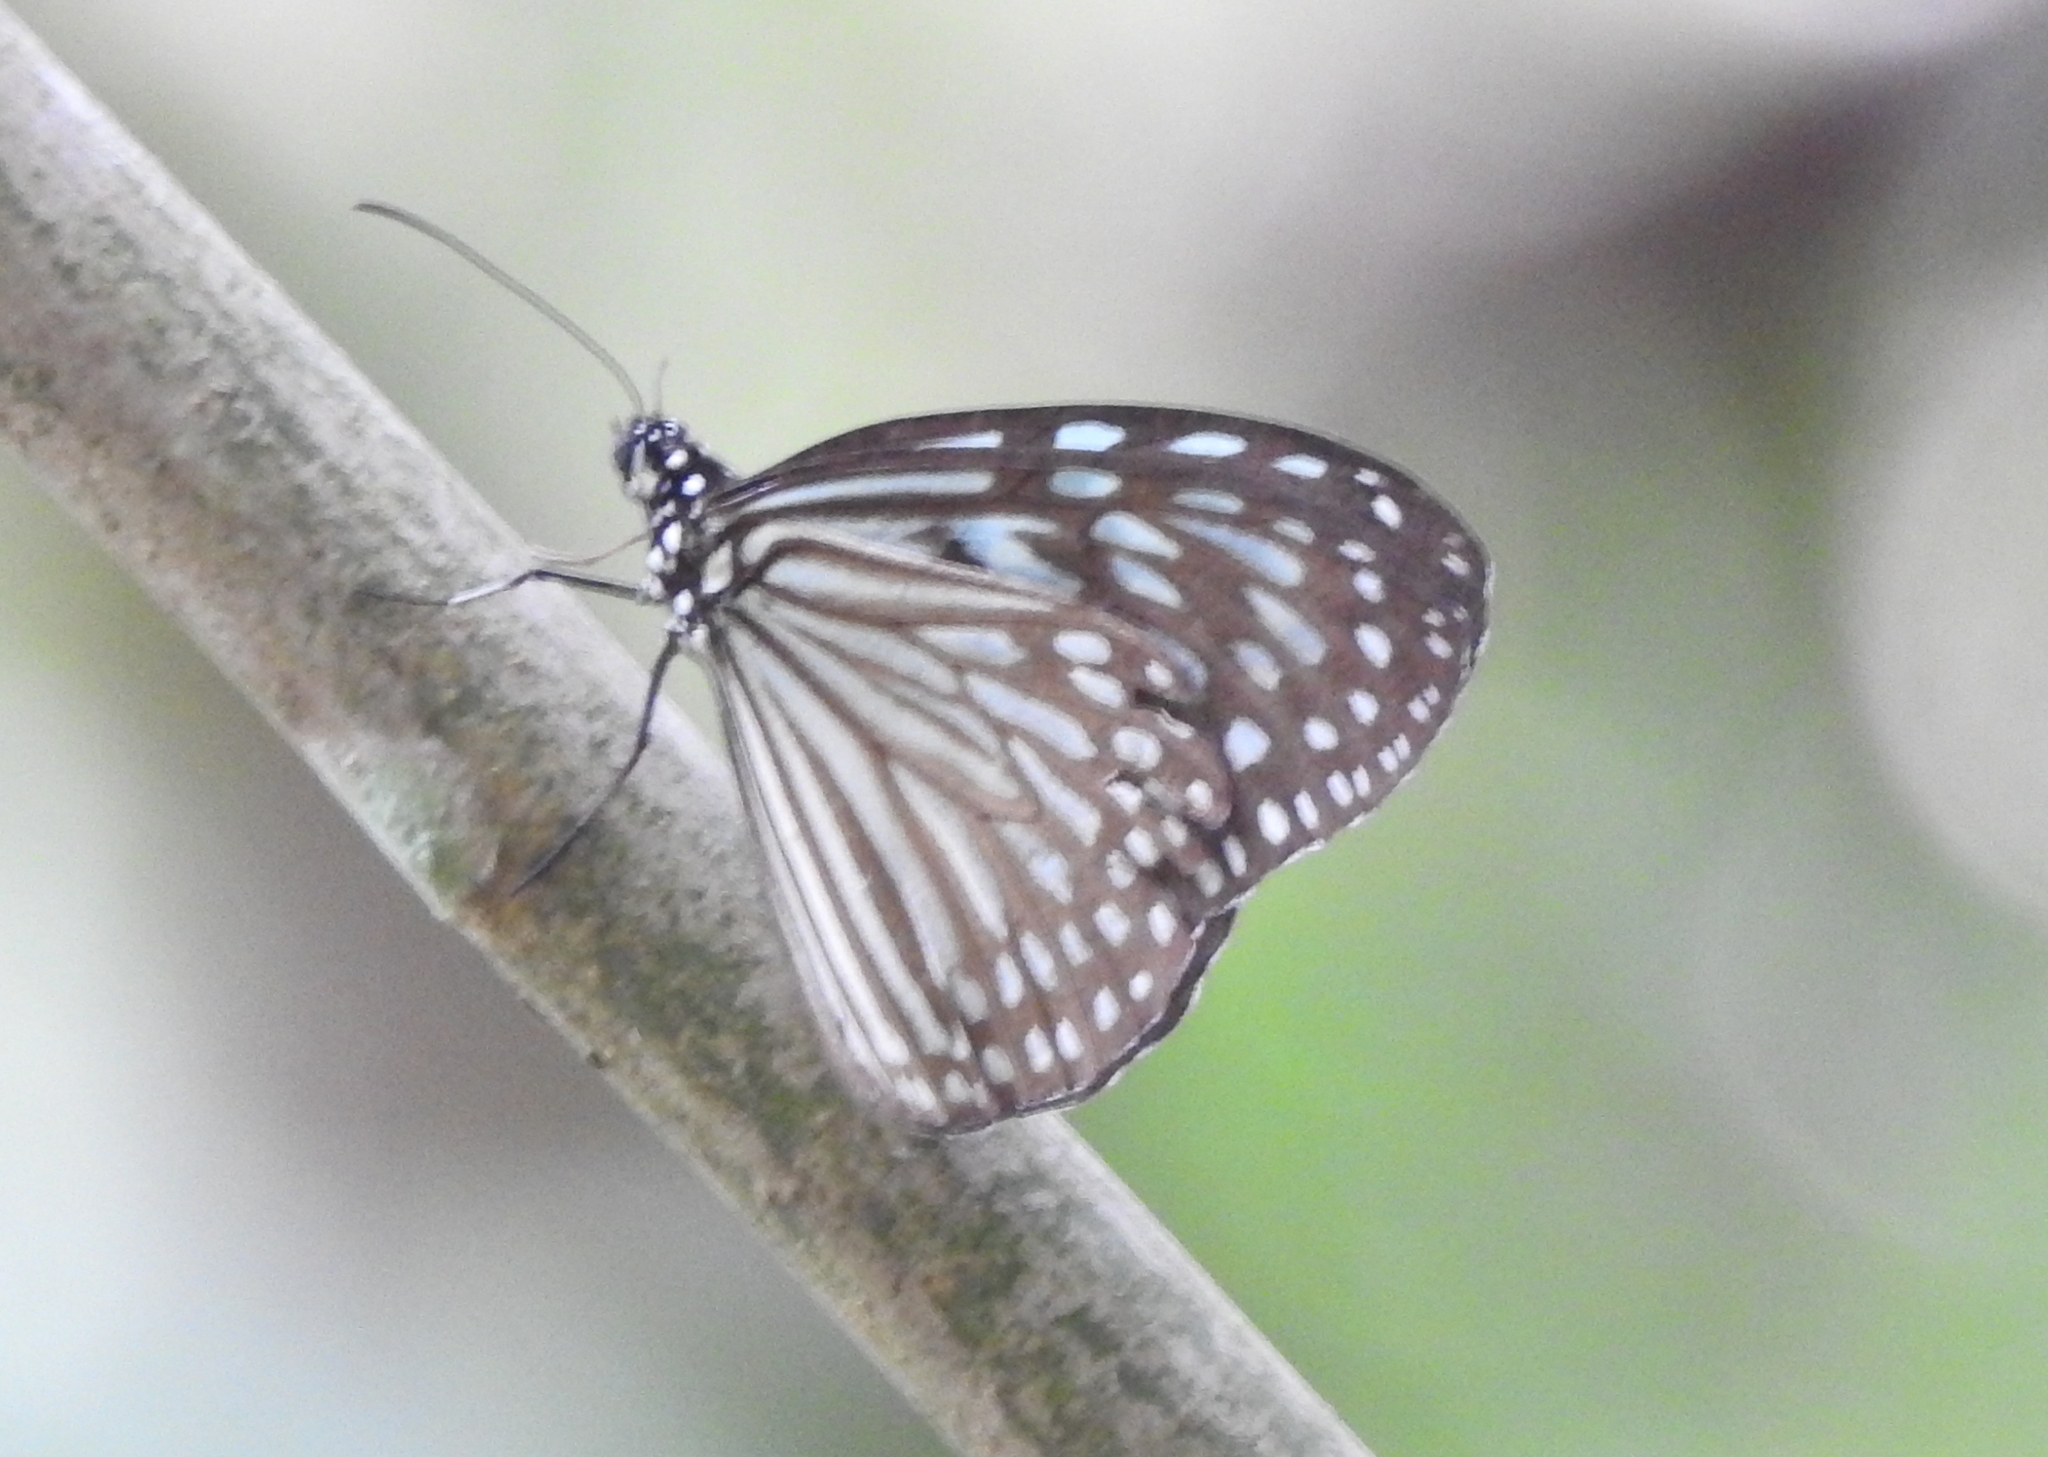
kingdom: Animalia
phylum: Arthropoda
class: Insecta
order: Lepidoptera
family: Nymphalidae
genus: Ideopsis
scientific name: Ideopsis vulgaris
